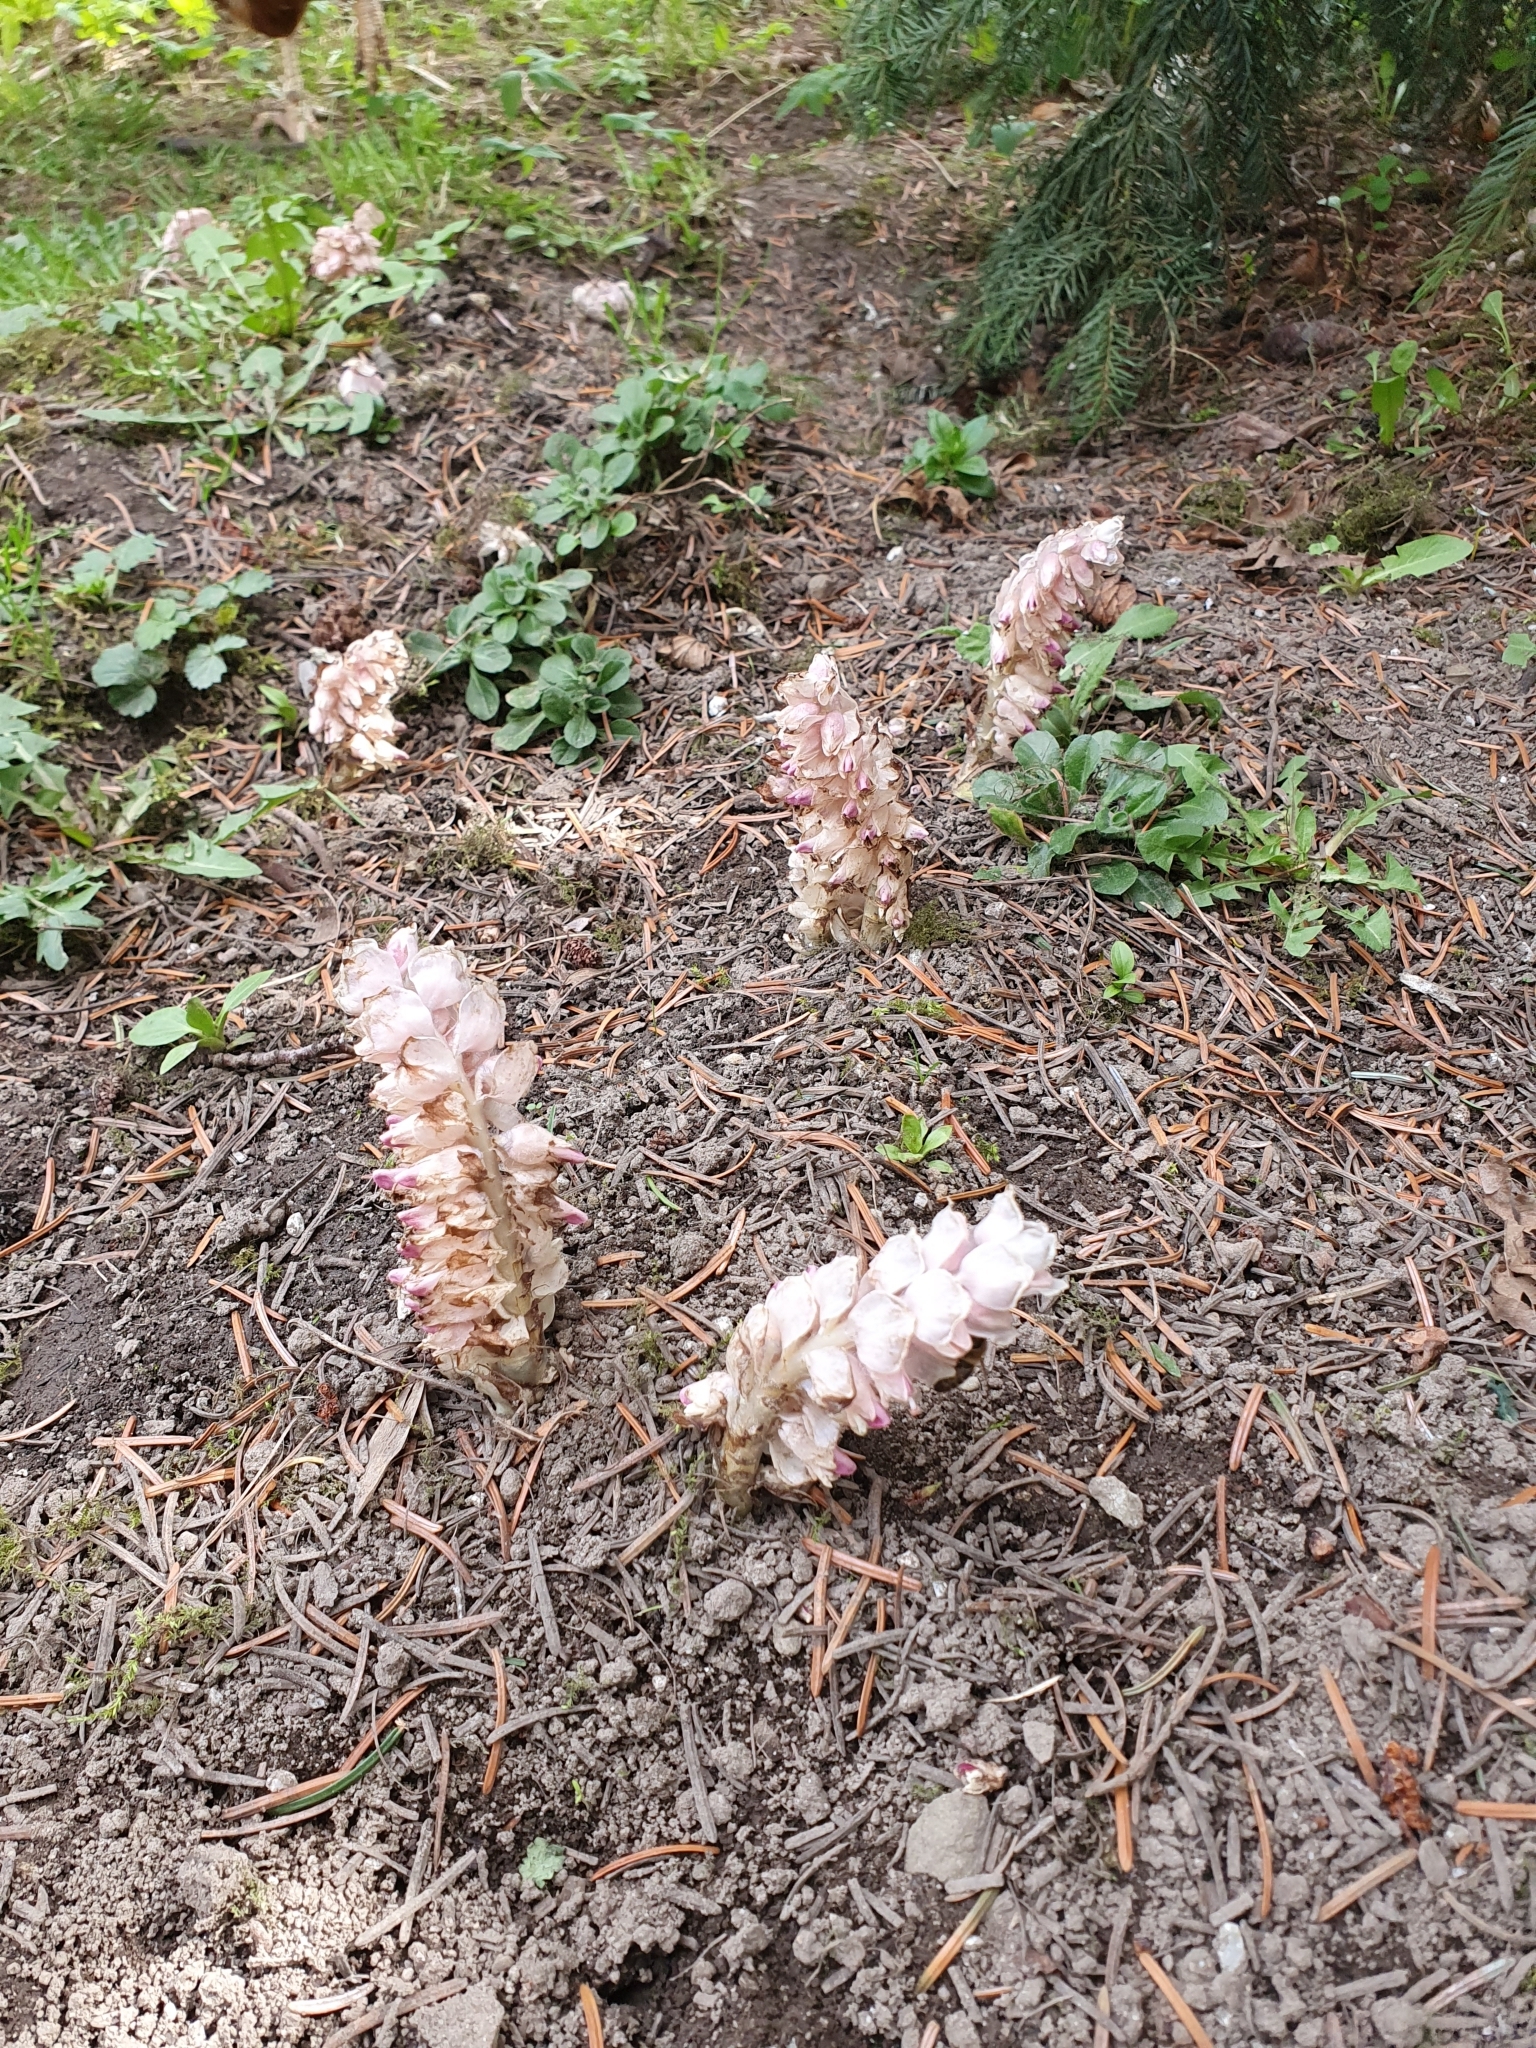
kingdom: Plantae
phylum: Tracheophyta
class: Magnoliopsida
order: Lamiales
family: Orobanchaceae
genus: Lathraea
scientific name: Lathraea squamaria
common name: Toothwort
